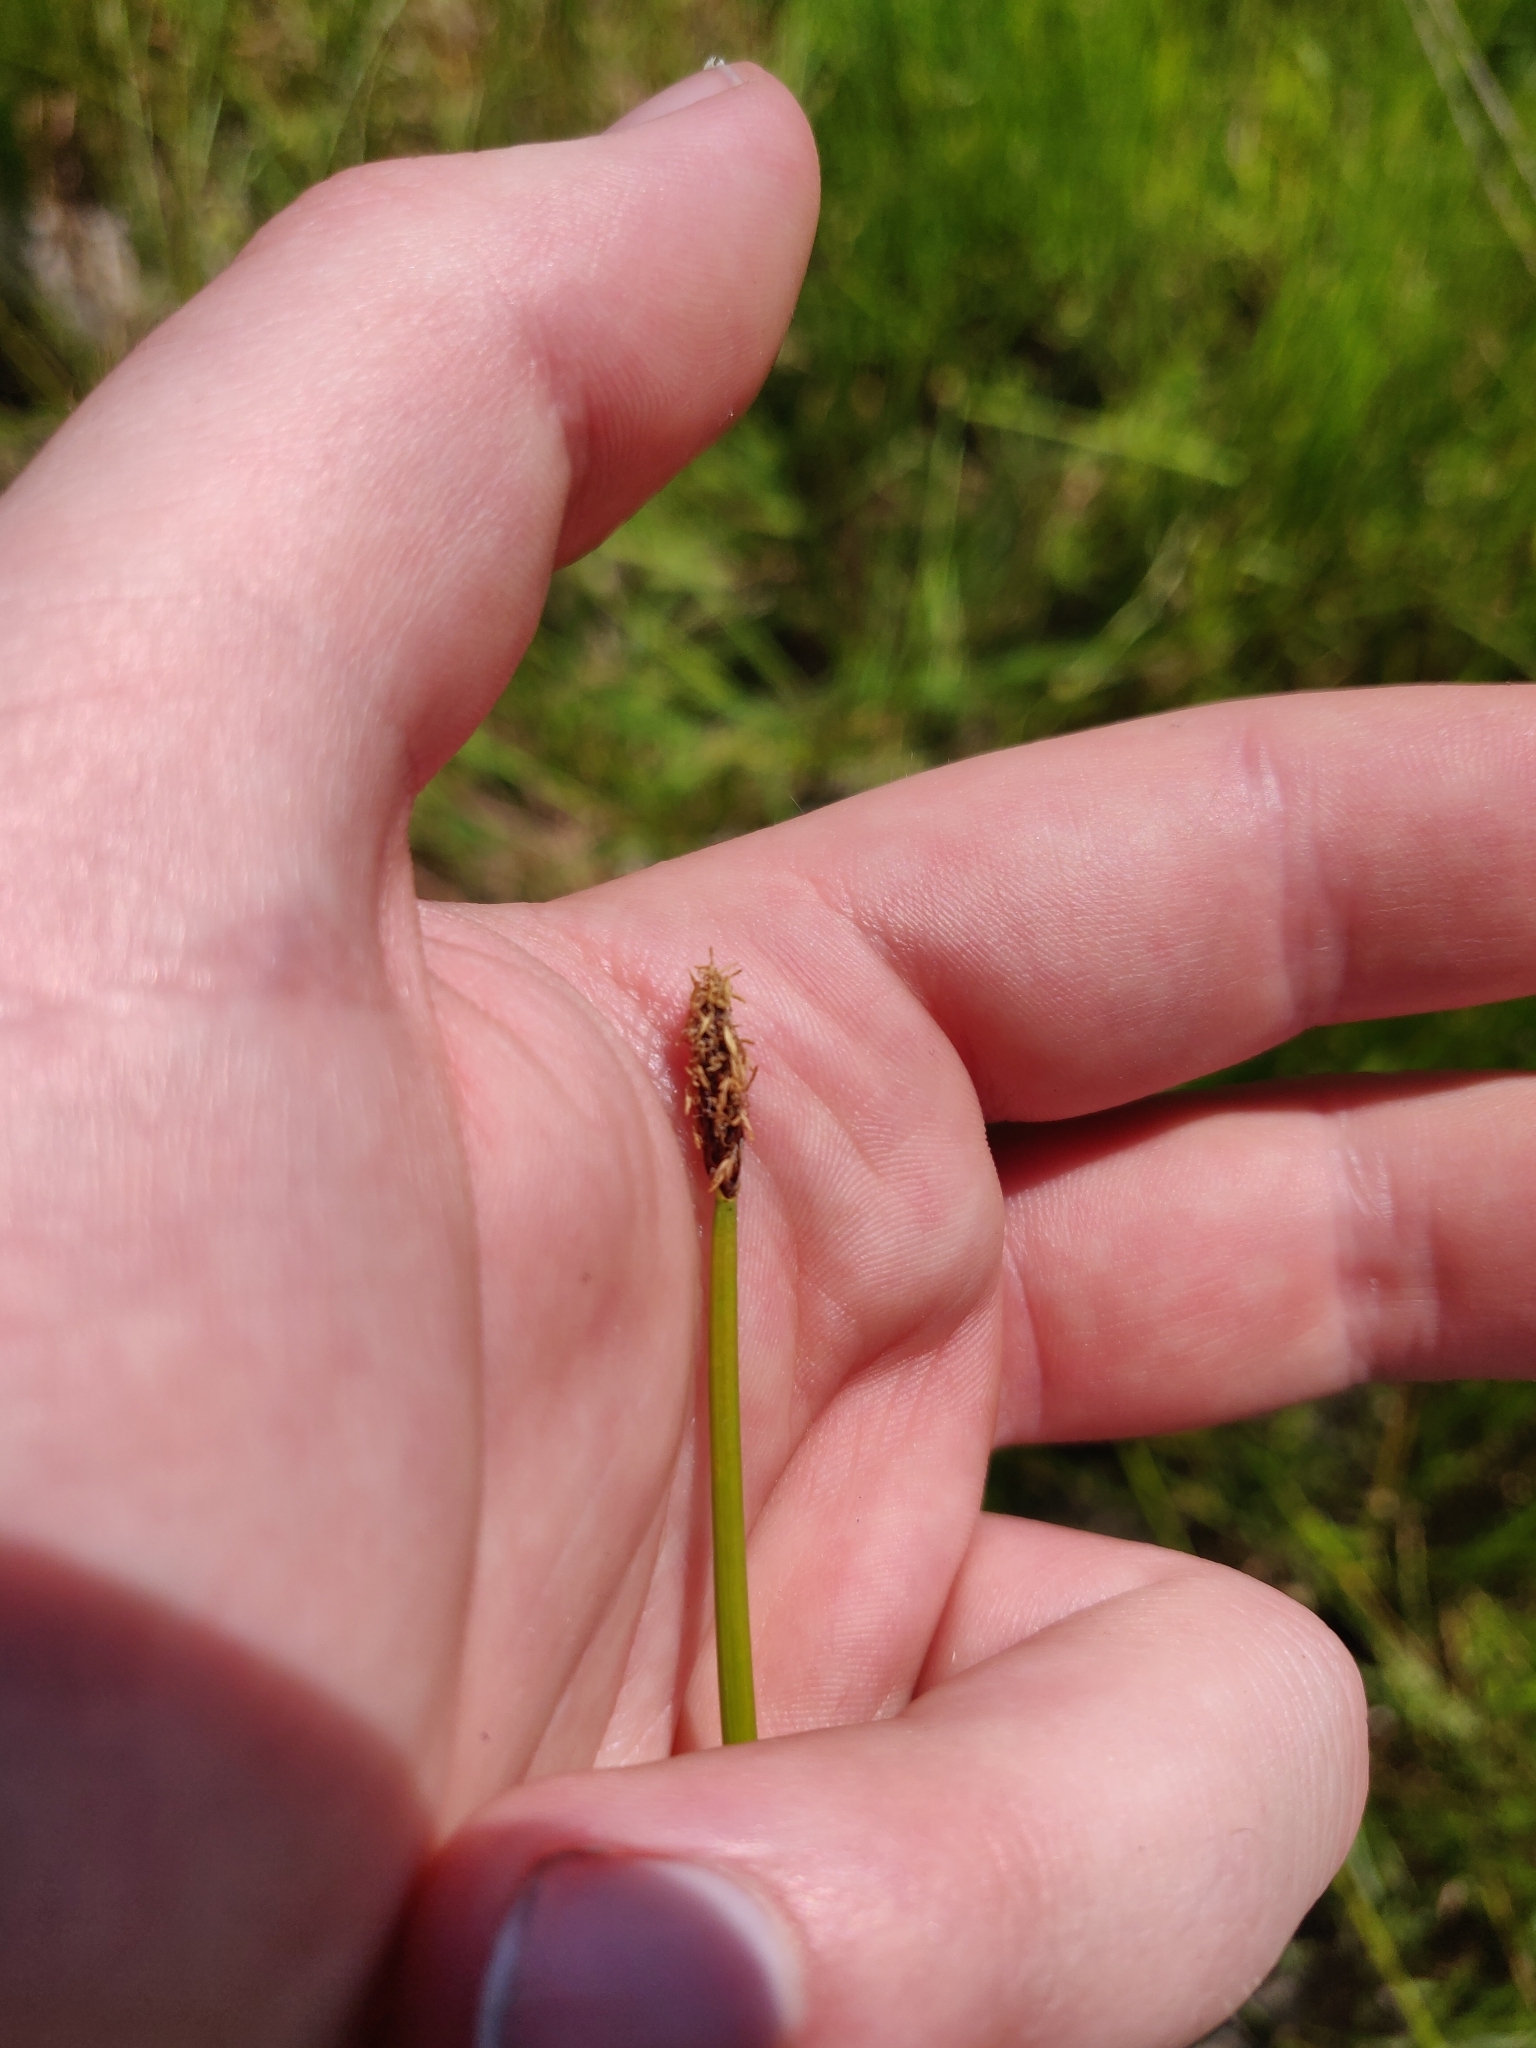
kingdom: Plantae
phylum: Tracheophyta
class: Liliopsida
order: Poales
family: Cyperaceae
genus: Eleocharis
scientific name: Eleocharis palustris
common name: Common spike-rush
